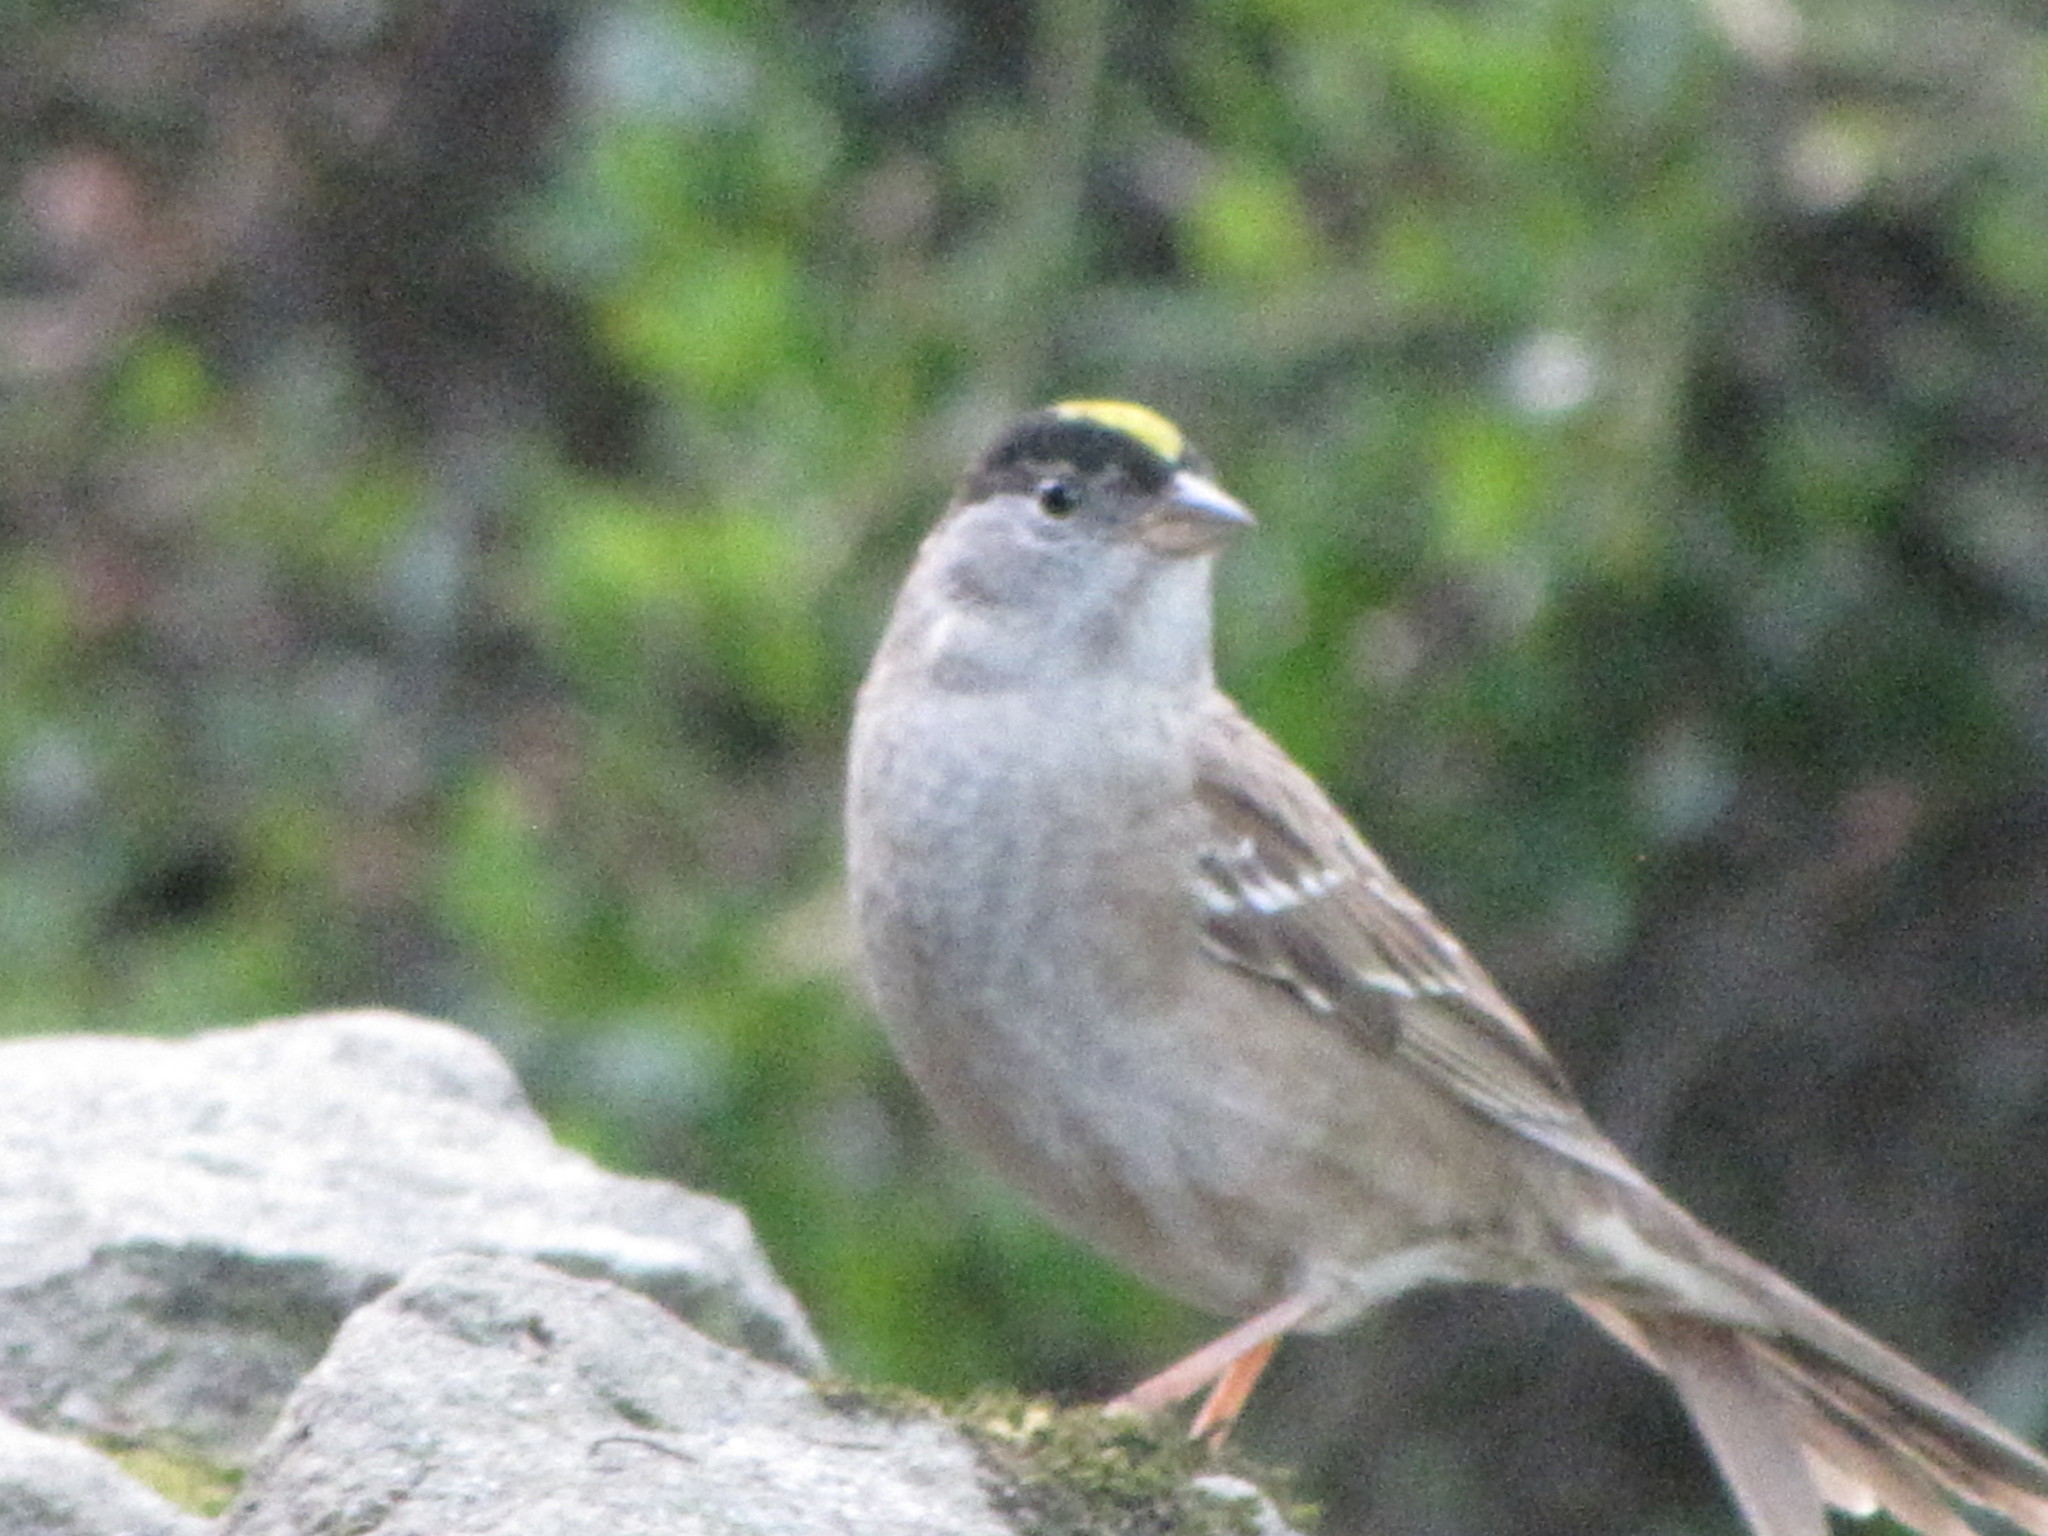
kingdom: Animalia
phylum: Chordata
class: Aves
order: Passeriformes
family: Passerellidae
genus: Zonotrichia
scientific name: Zonotrichia atricapilla
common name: Golden-crowned sparrow
